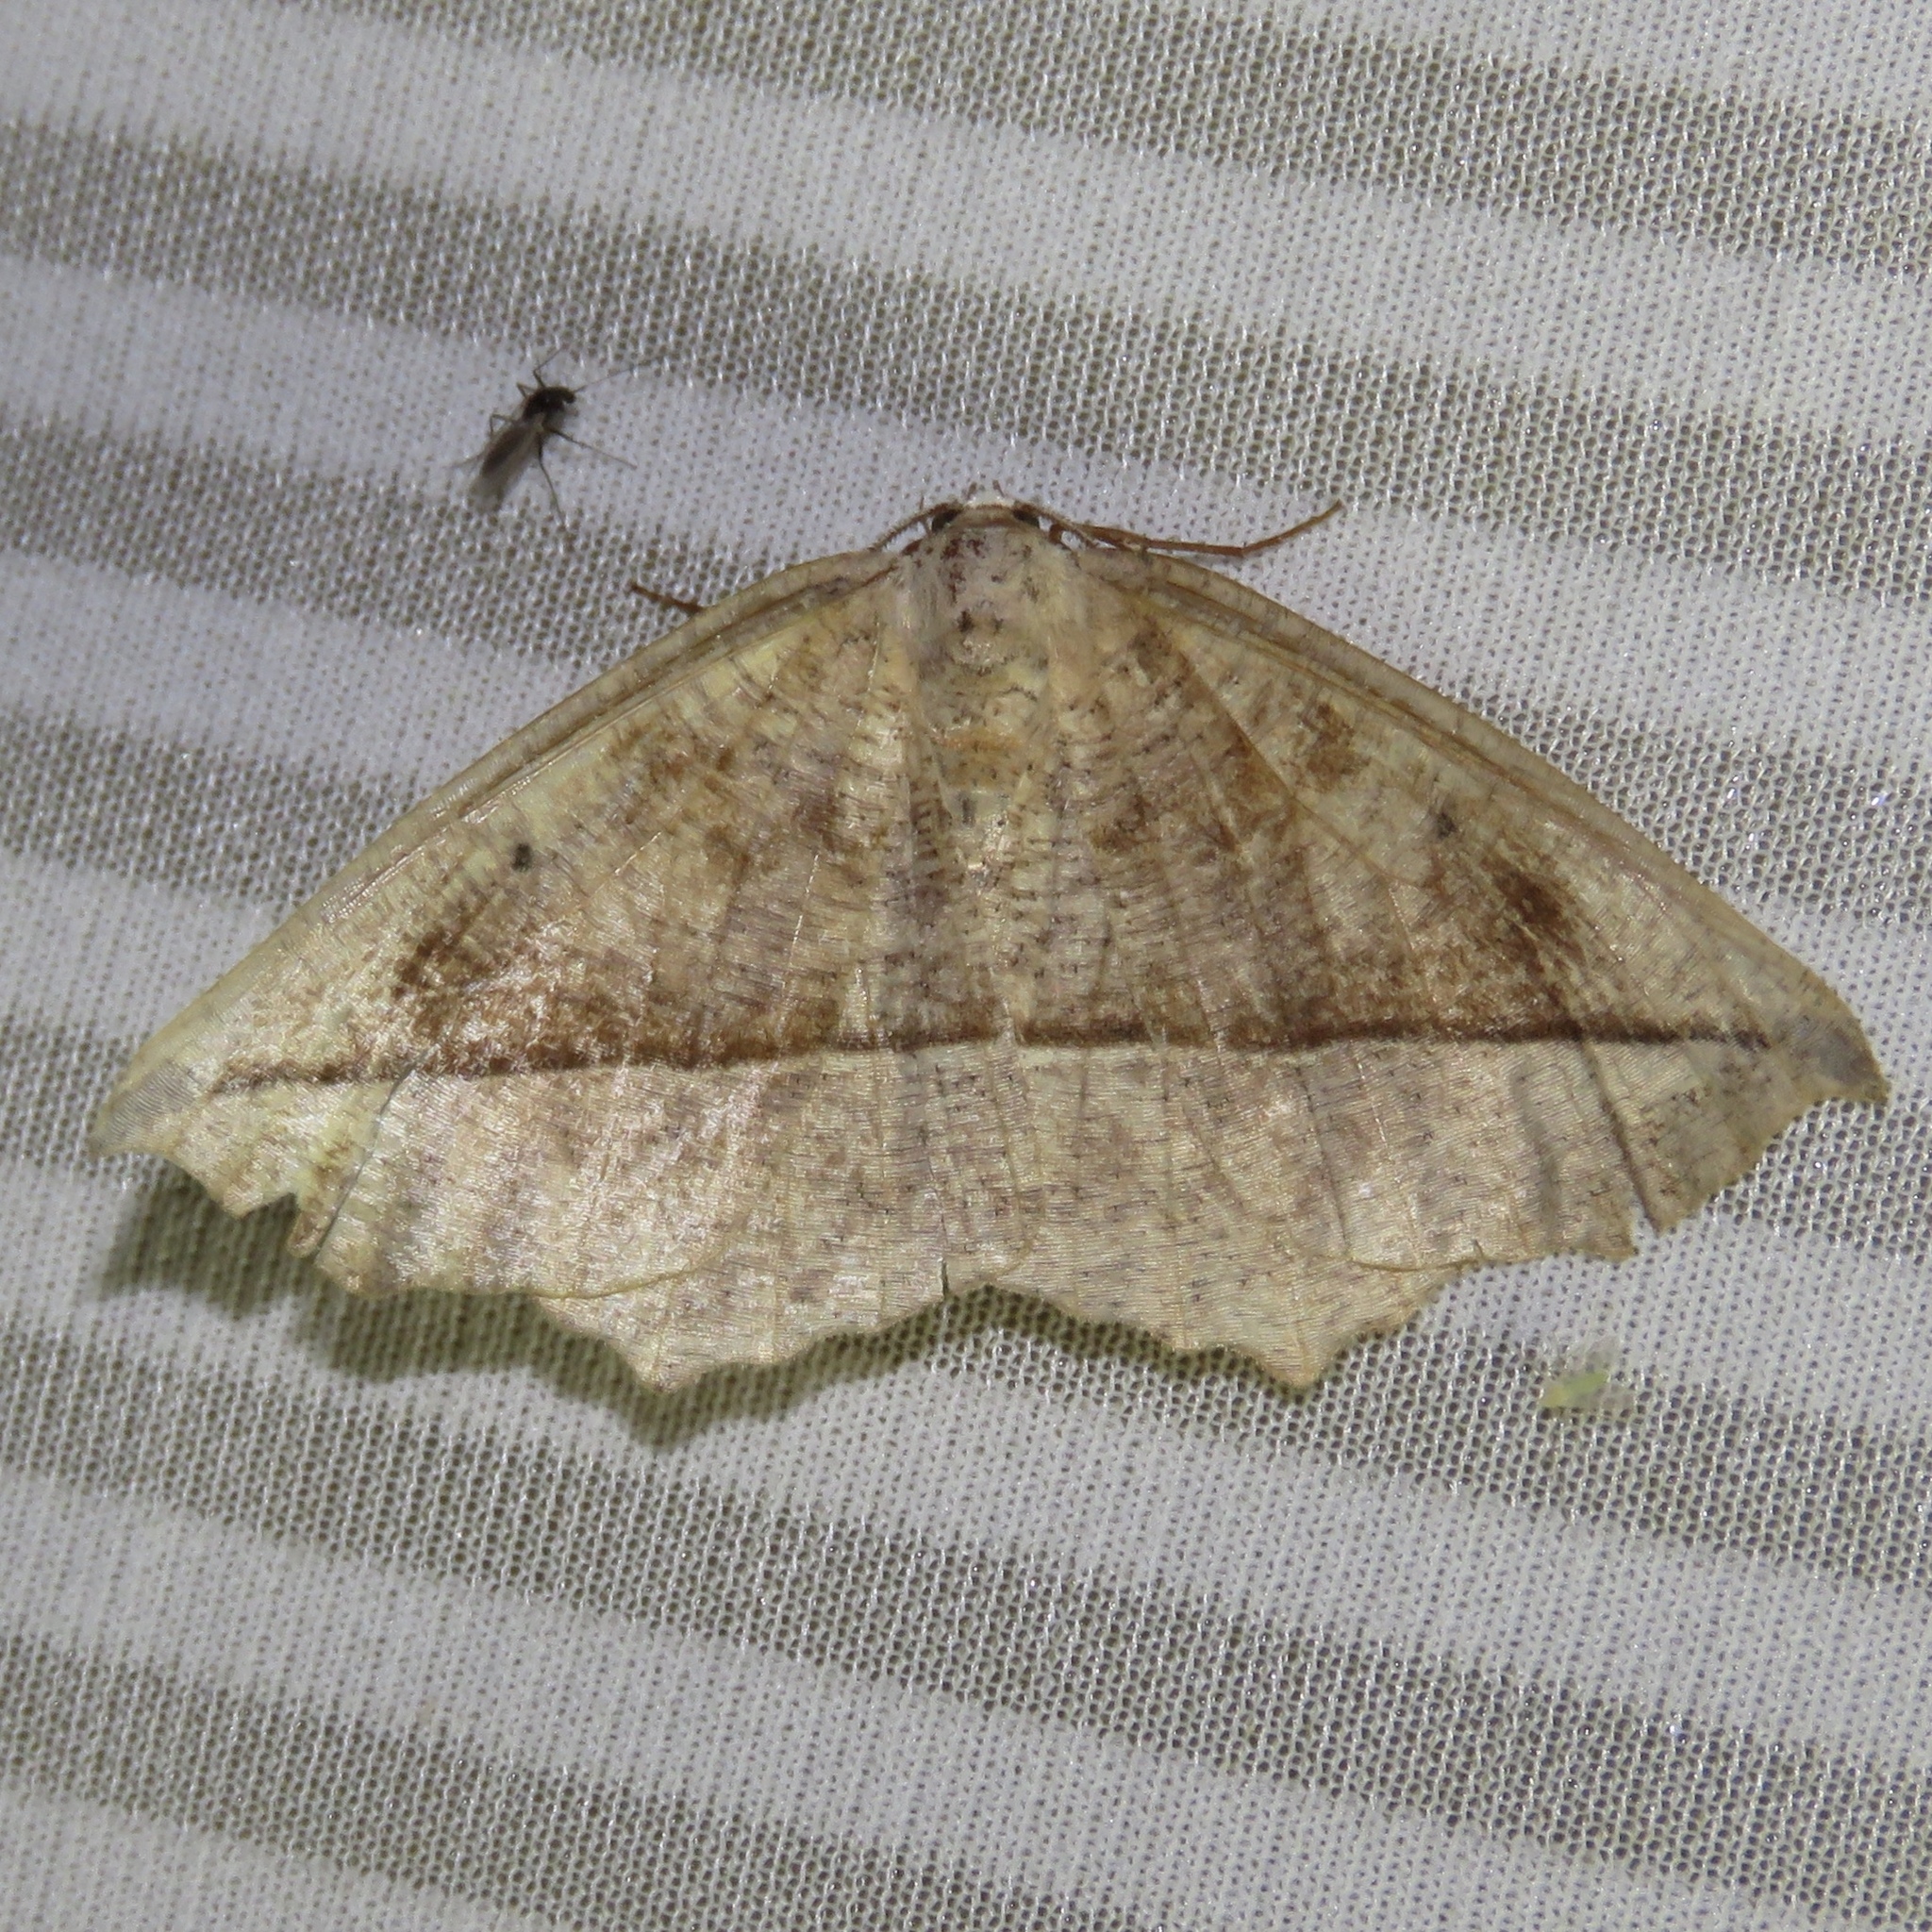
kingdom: Animalia
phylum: Arthropoda
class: Insecta
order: Lepidoptera
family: Geometridae
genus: Eutrapela
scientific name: Eutrapela clemataria
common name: Curved-toothed geometer
